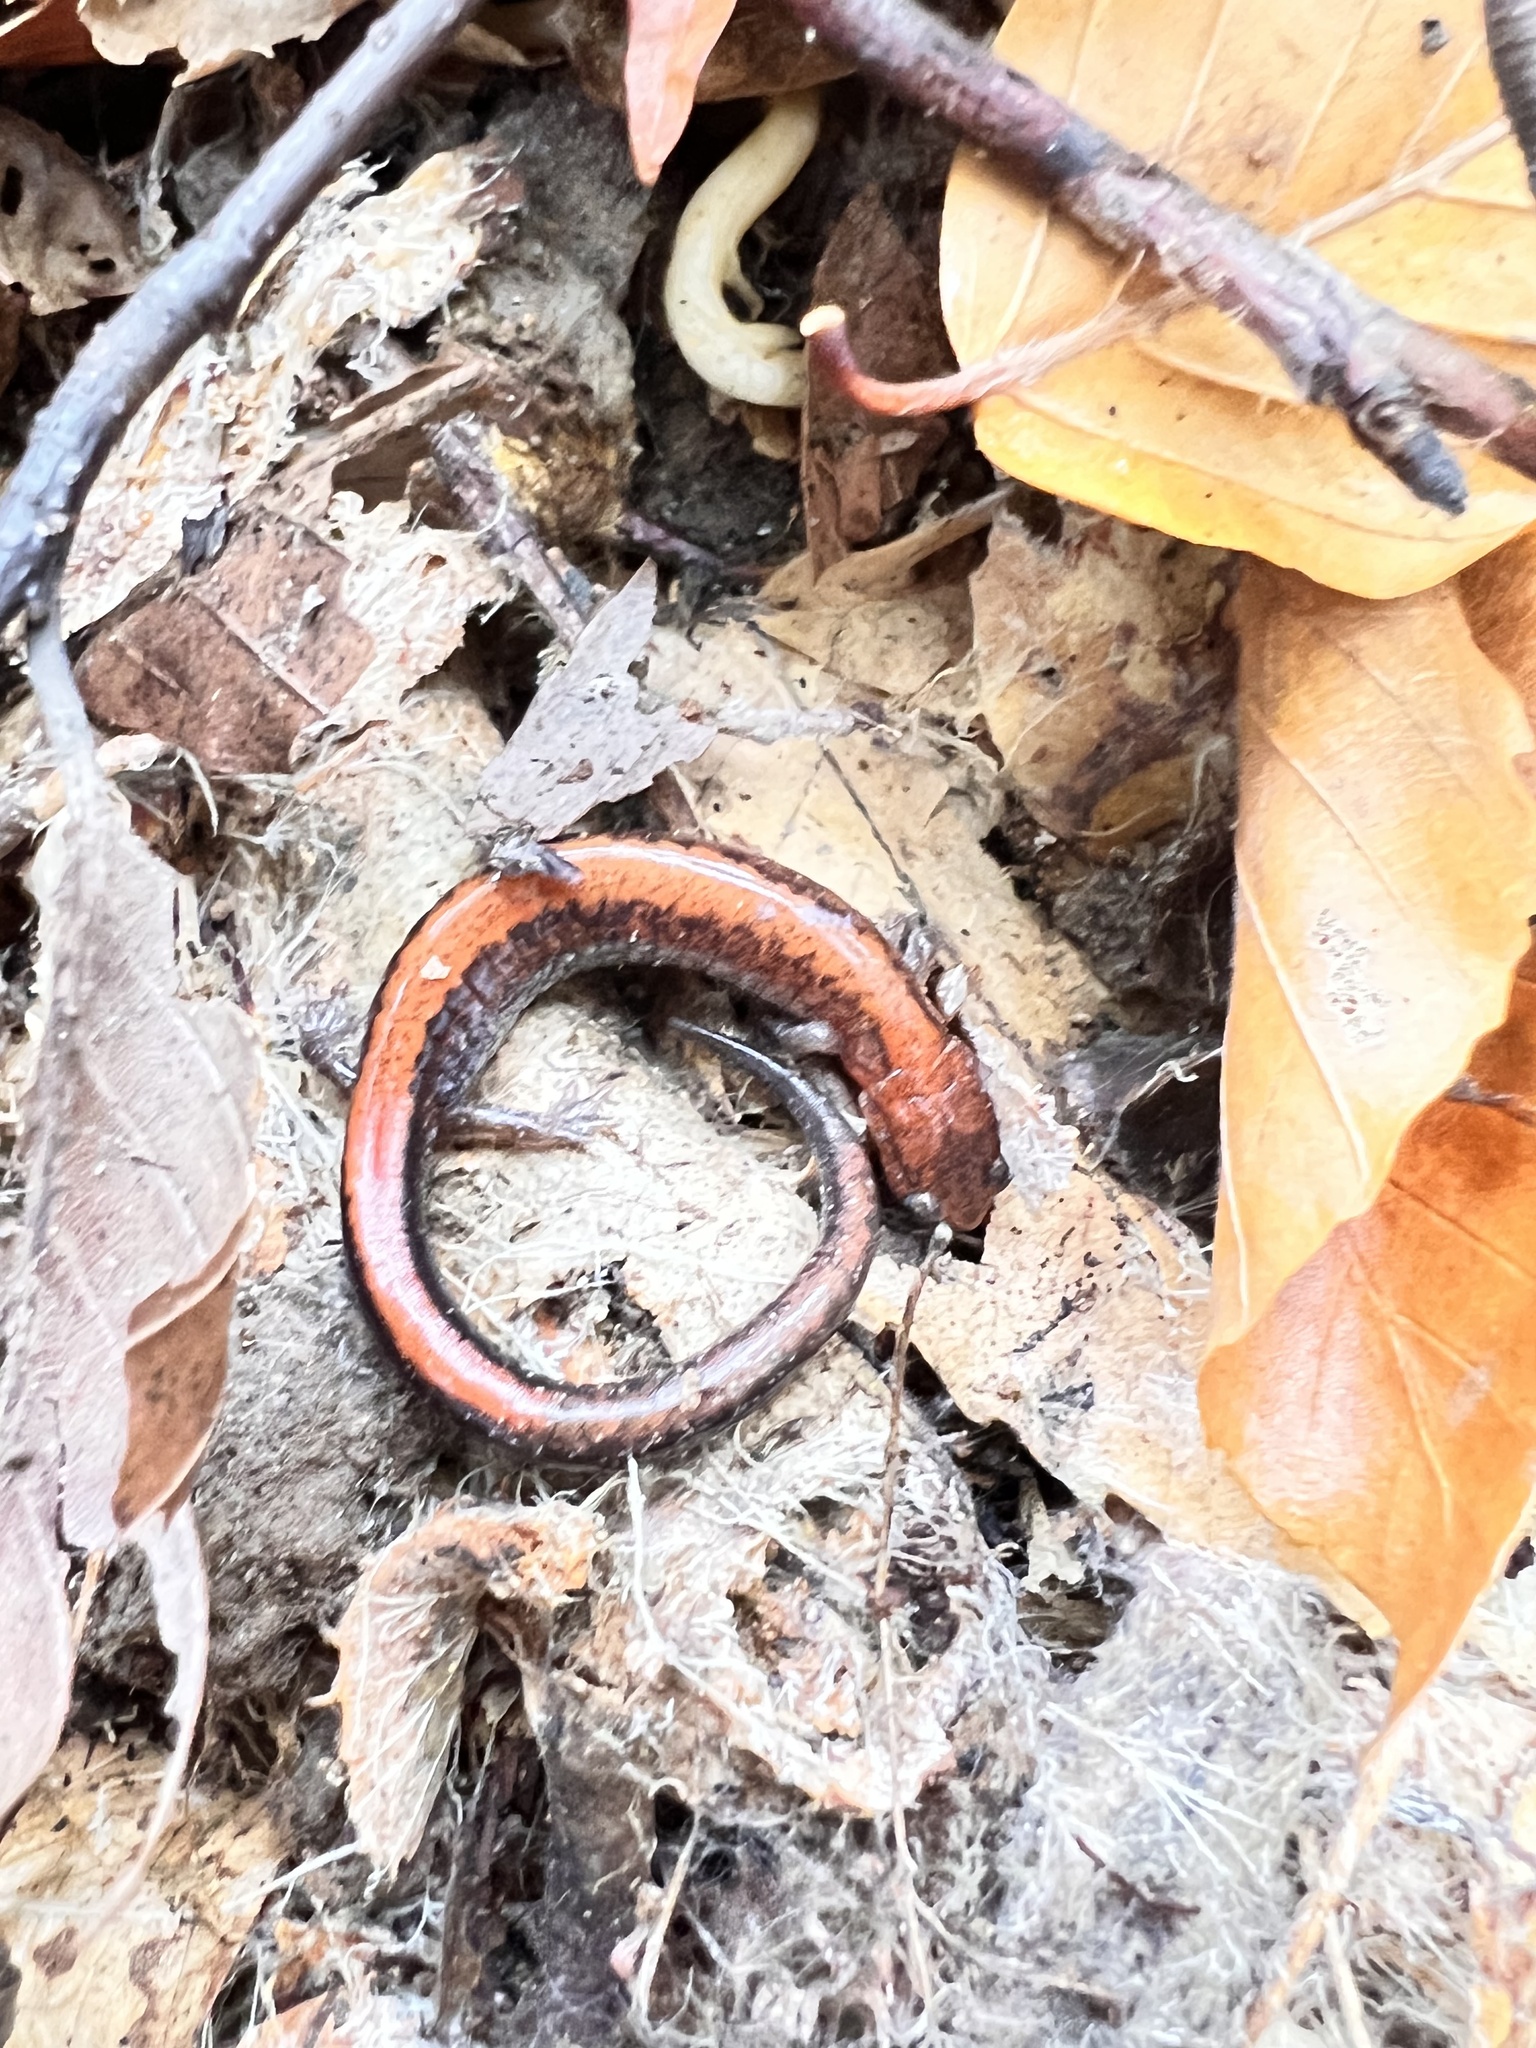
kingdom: Animalia
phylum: Chordata
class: Amphibia
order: Caudata
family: Plethodontidae
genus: Plethodon
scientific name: Plethodon cinereus
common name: Redback salamander
